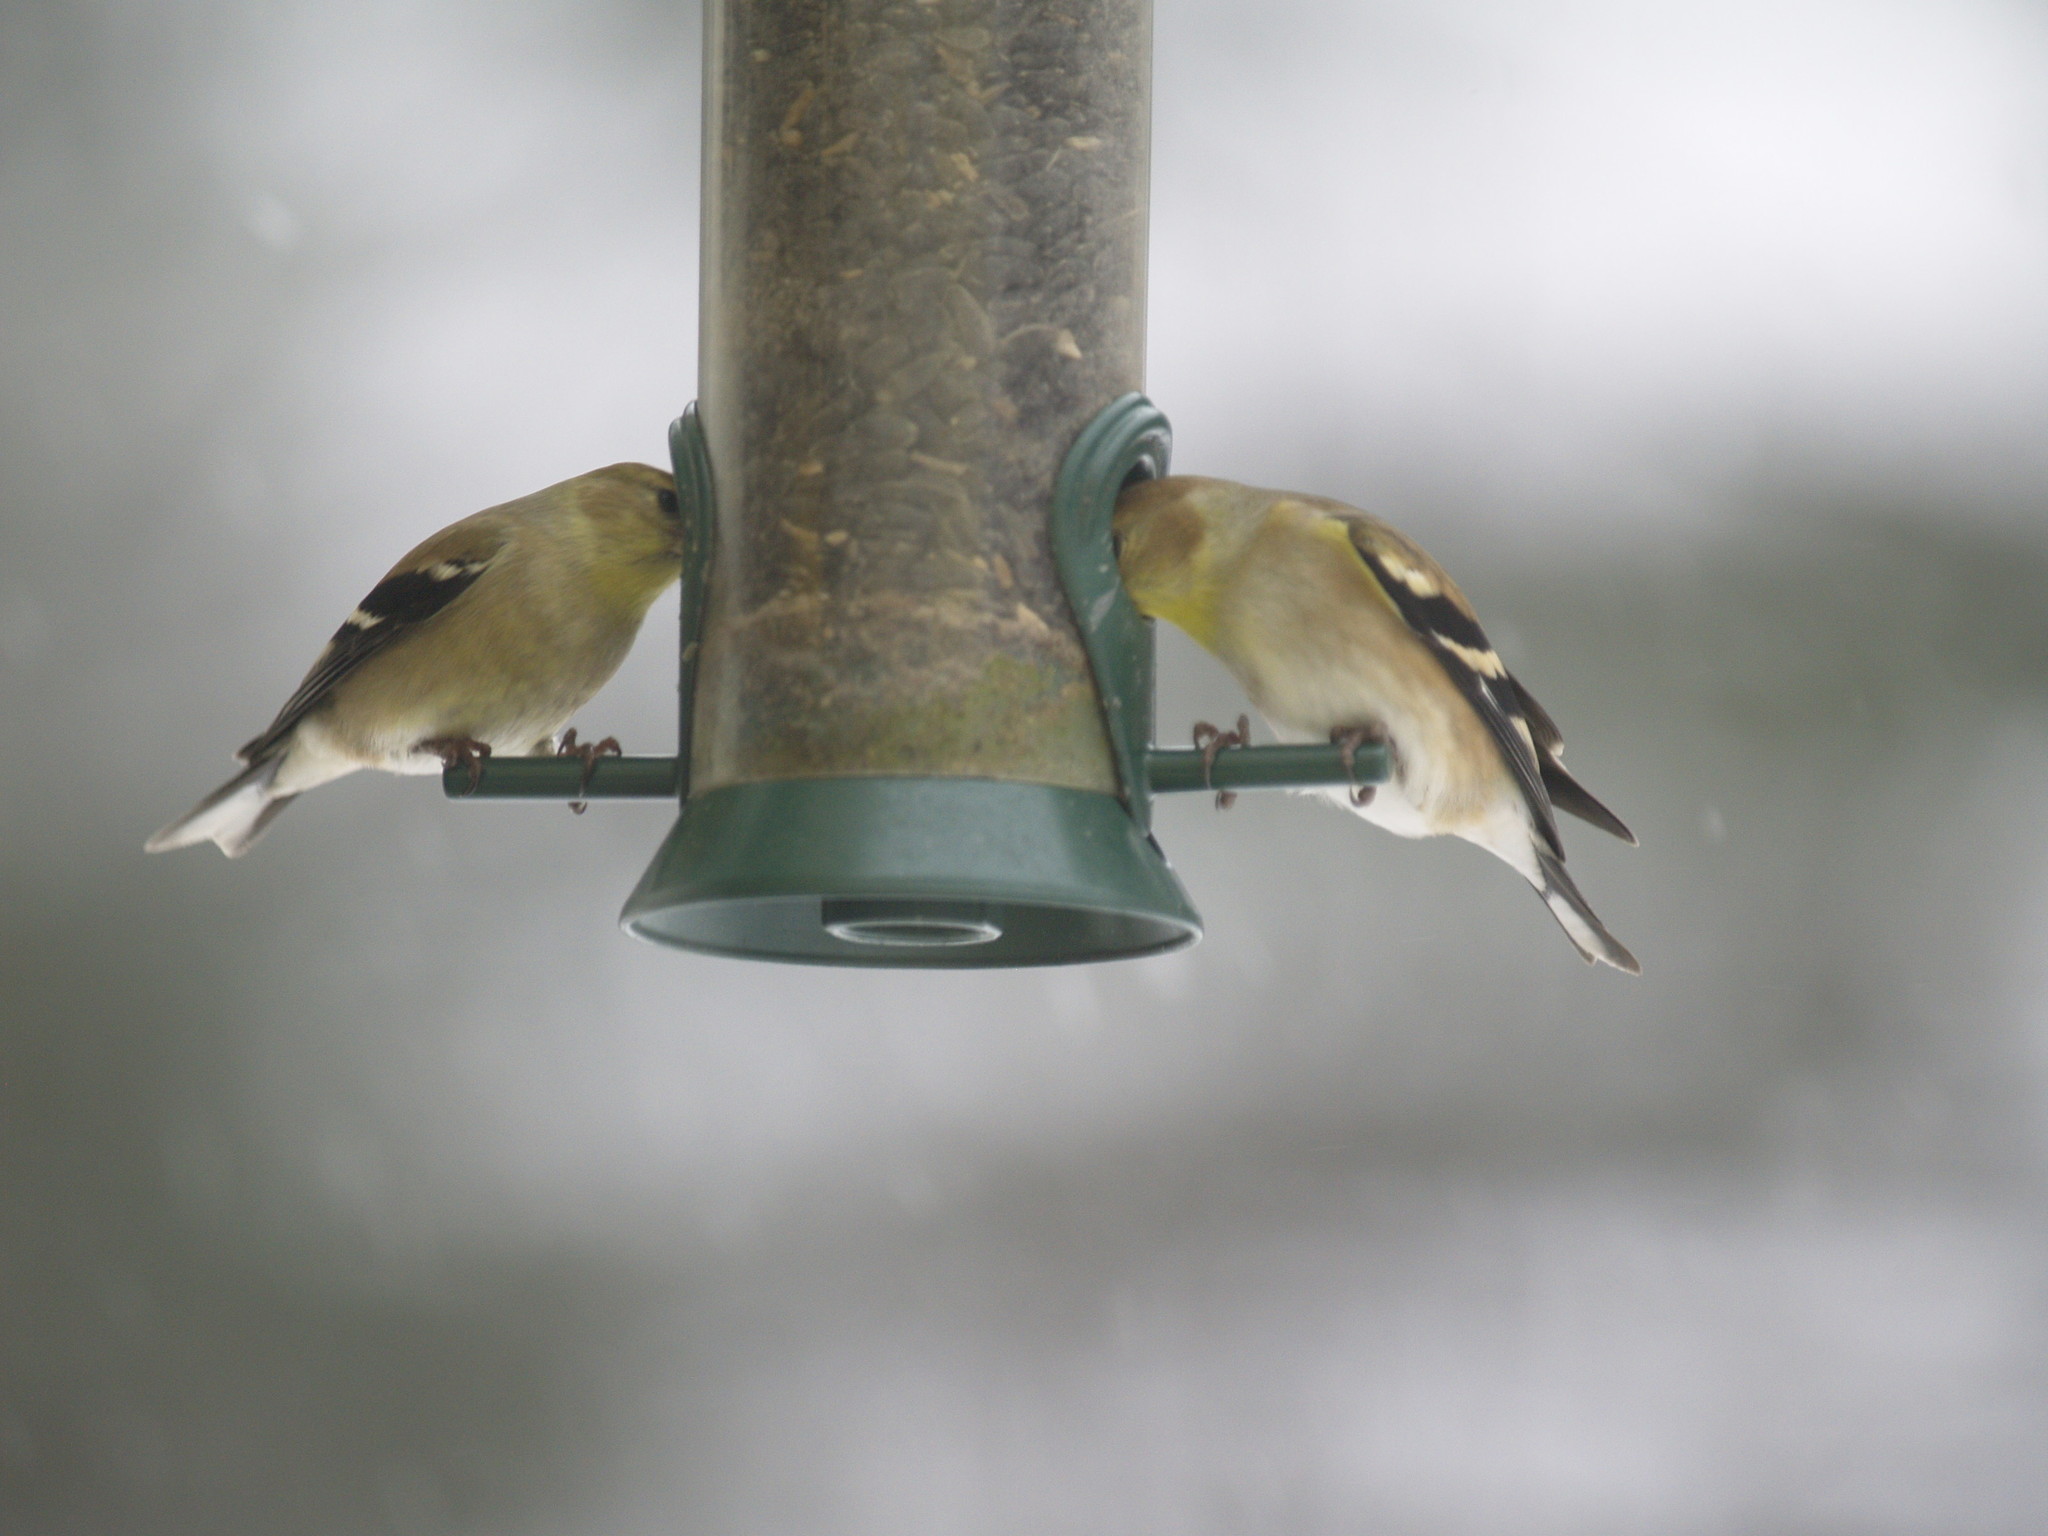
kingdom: Animalia
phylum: Chordata
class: Aves
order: Passeriformes
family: Fringillidae
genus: Spinus
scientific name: Spinus tristis
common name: American goldfinch
